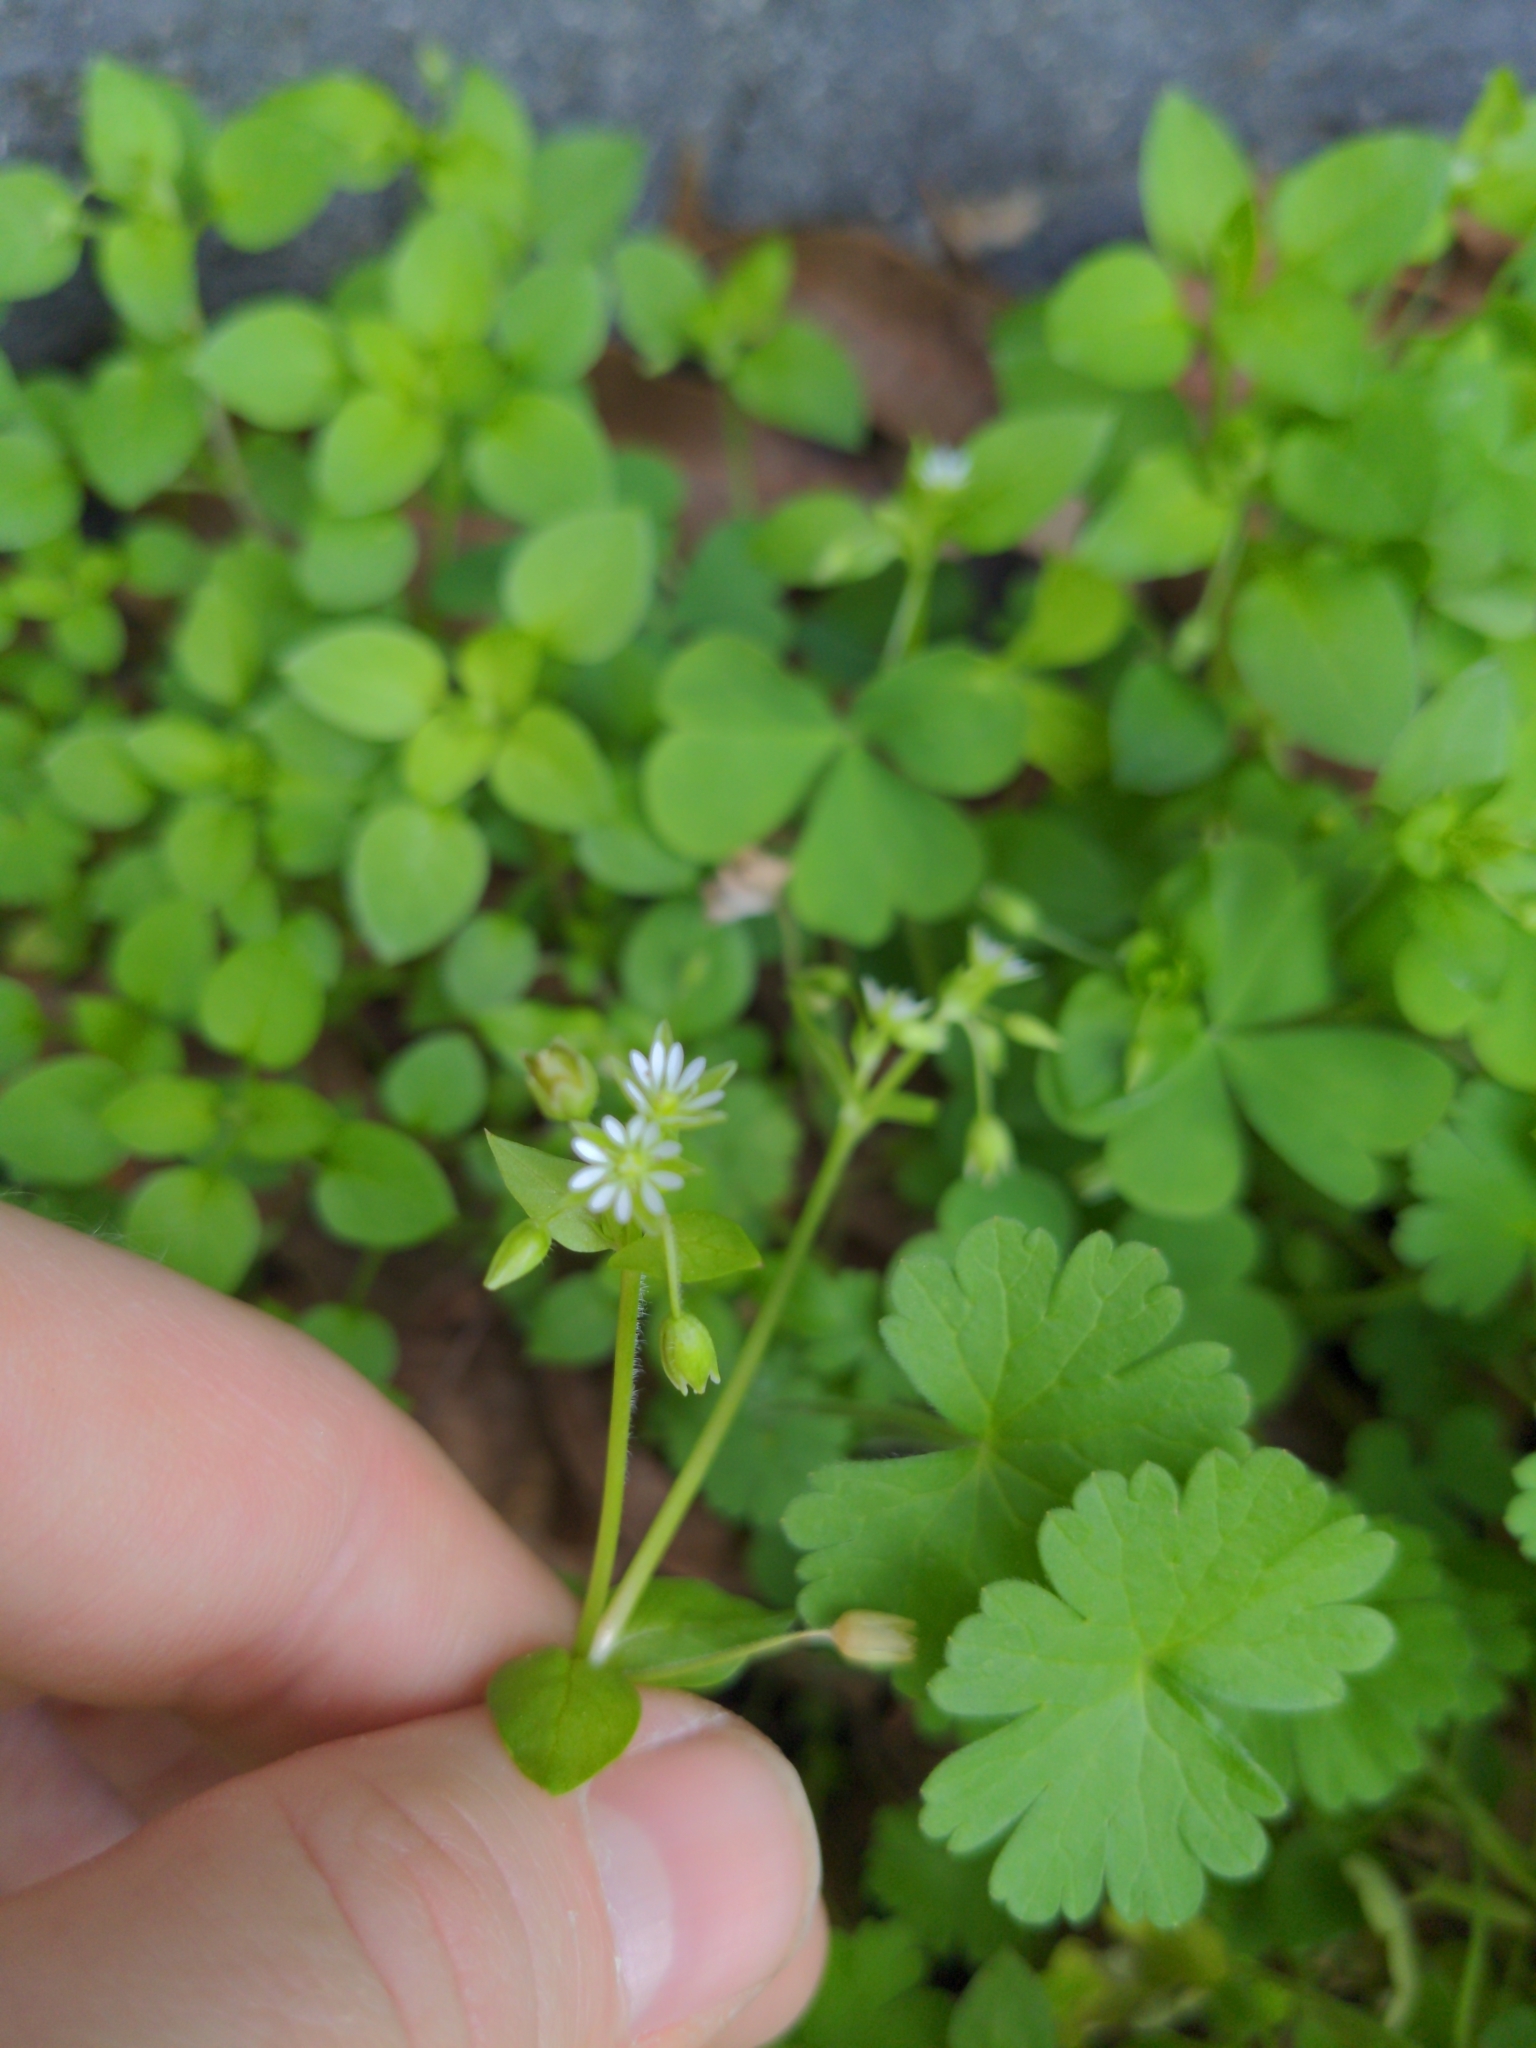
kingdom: Plantae
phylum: Tracheophyta
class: Magnoliopsida
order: Caryophyllales
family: Caryophyllaceae
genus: Stellaria
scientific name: Stellaria media
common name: Common chickweed
